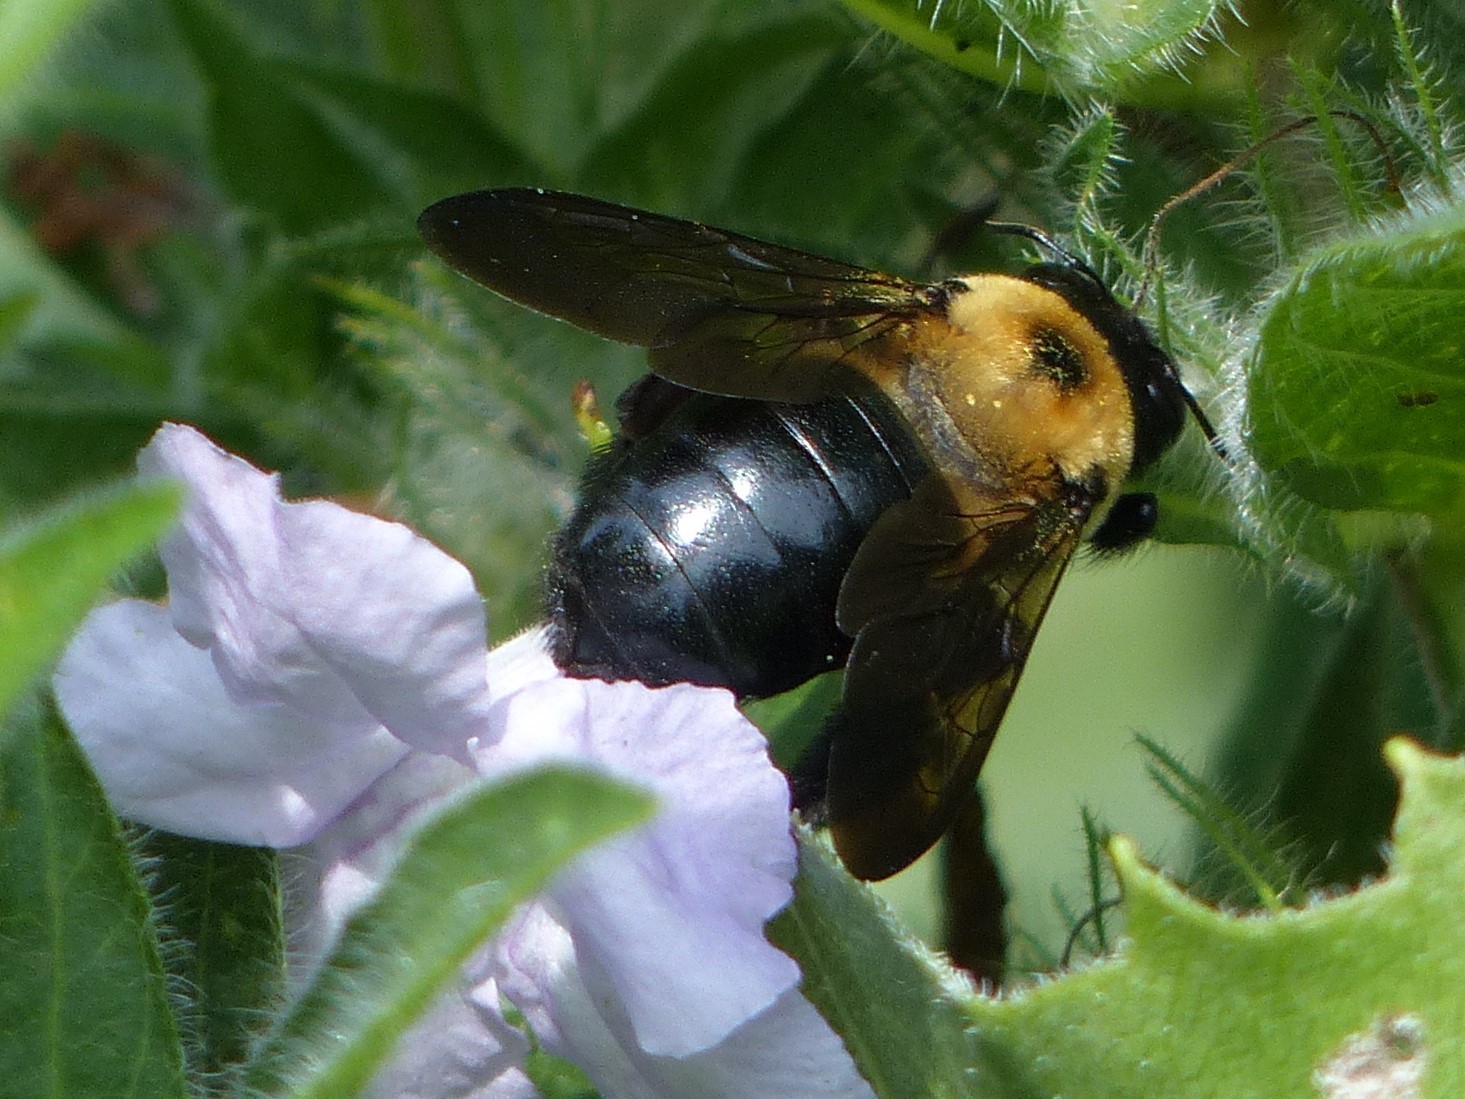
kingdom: Animalia
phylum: Arthropoda
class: Insecta
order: Hymenoptera
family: Apidae
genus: Xylocopa
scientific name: Xylocopa virginica
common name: Carpenter bee
